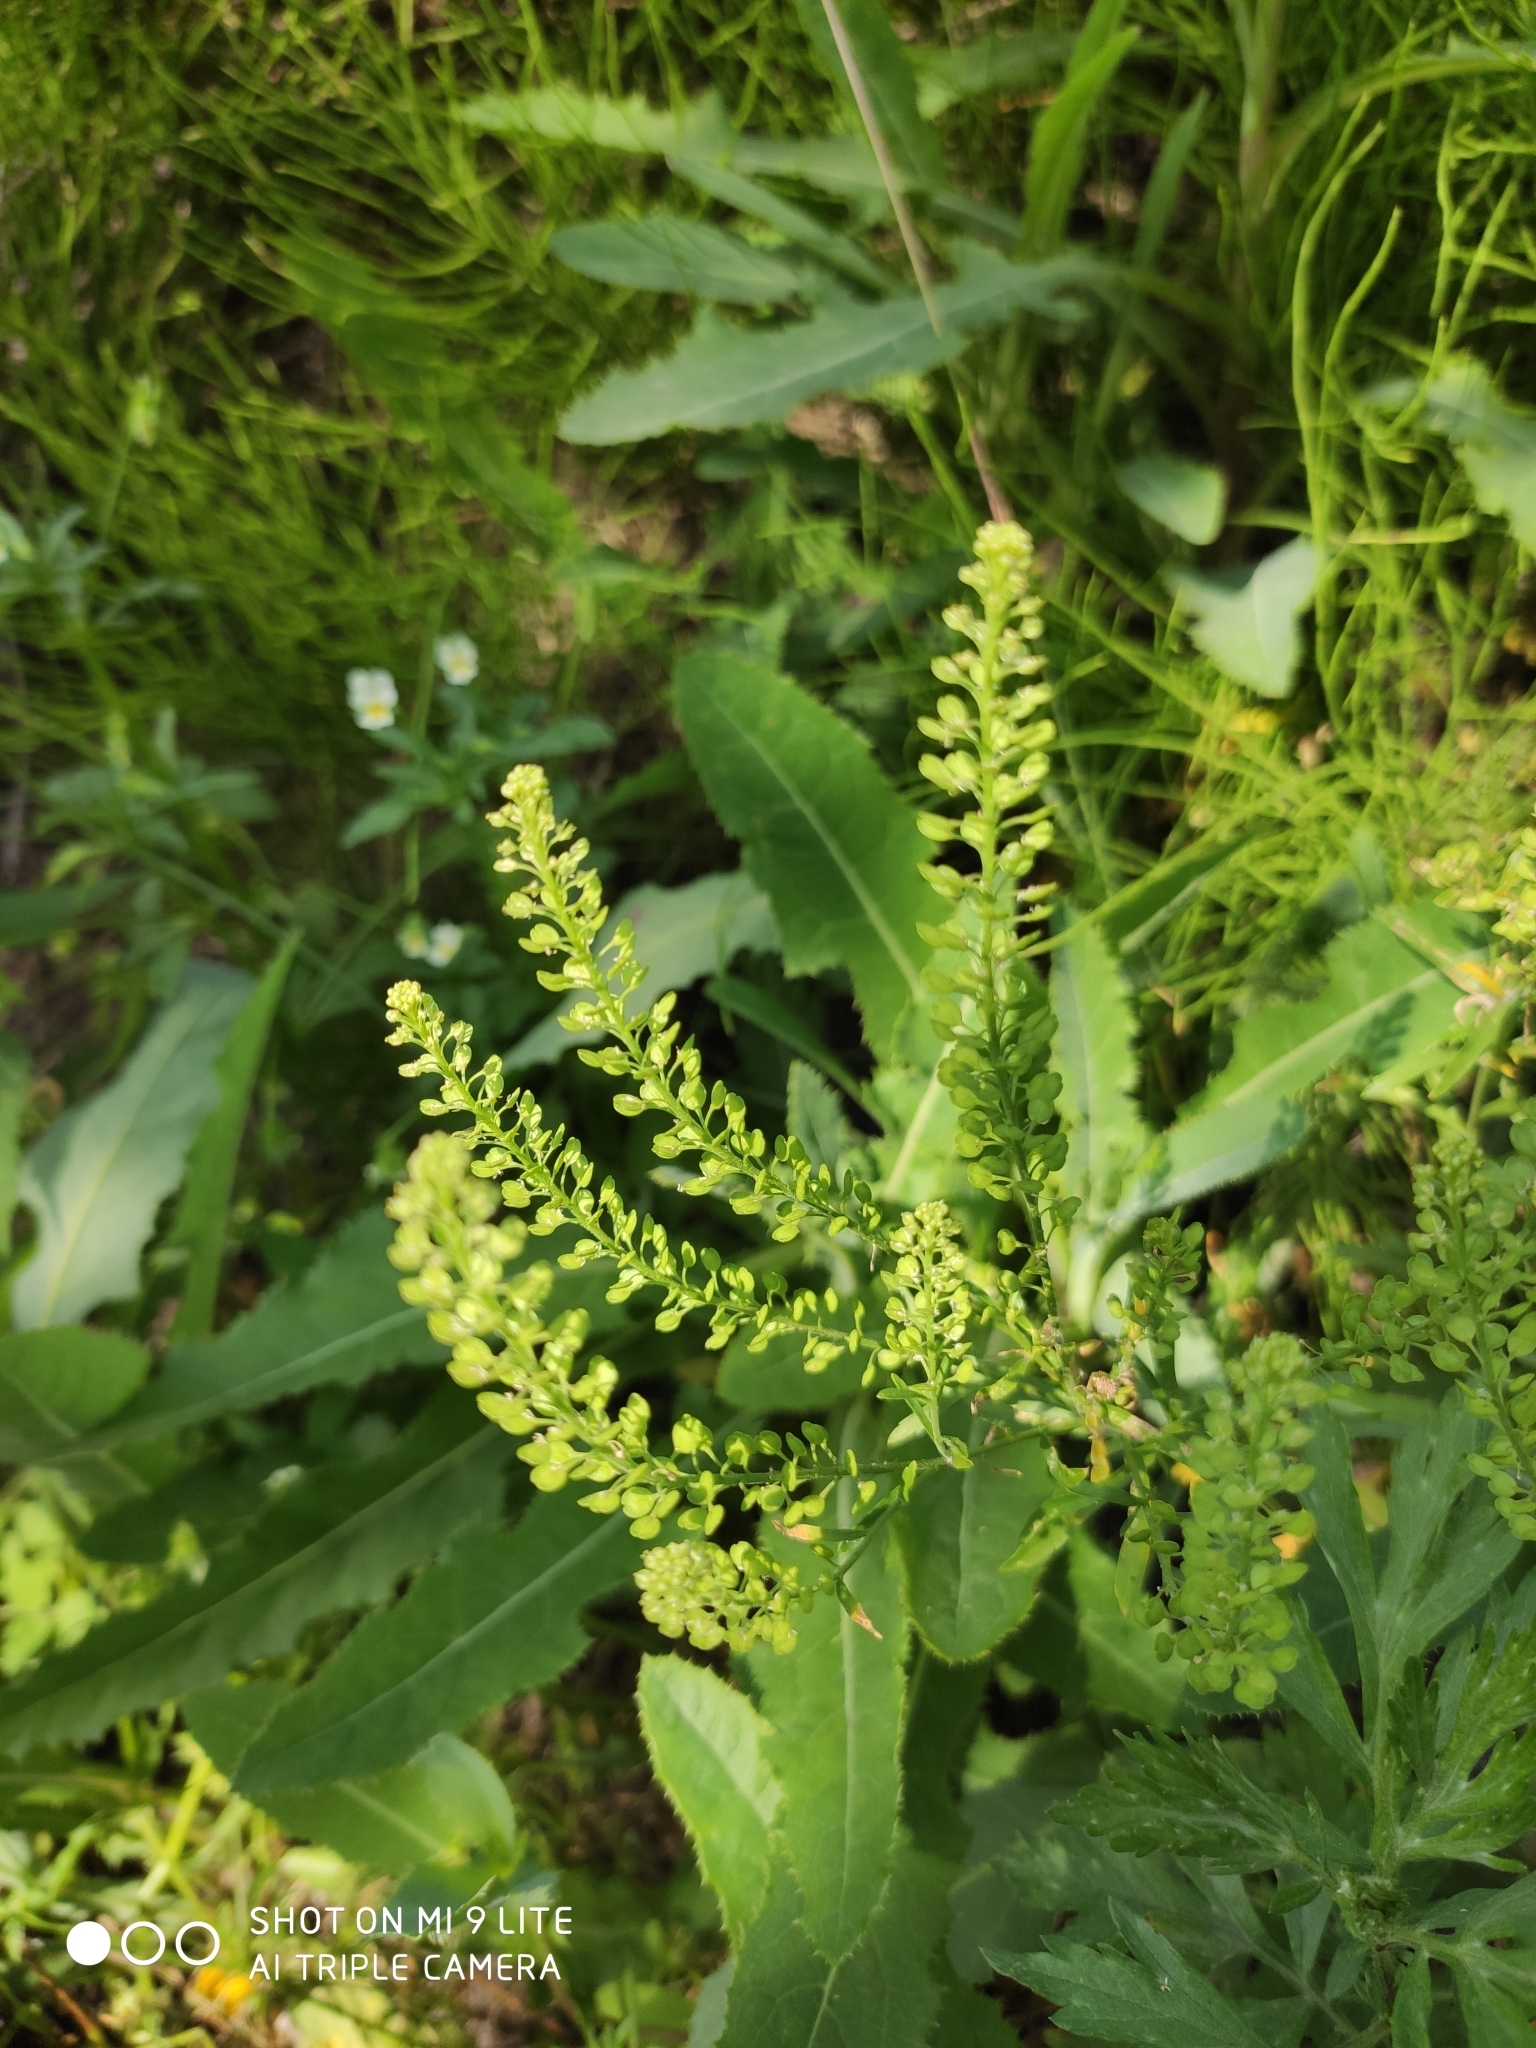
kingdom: Plantae
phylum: Tracheophyta
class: Magnoliopsida
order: Brassicales
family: Brassicaceae
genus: Lepidium
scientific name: Lepidium densiflorum
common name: Miner's pepperwort
